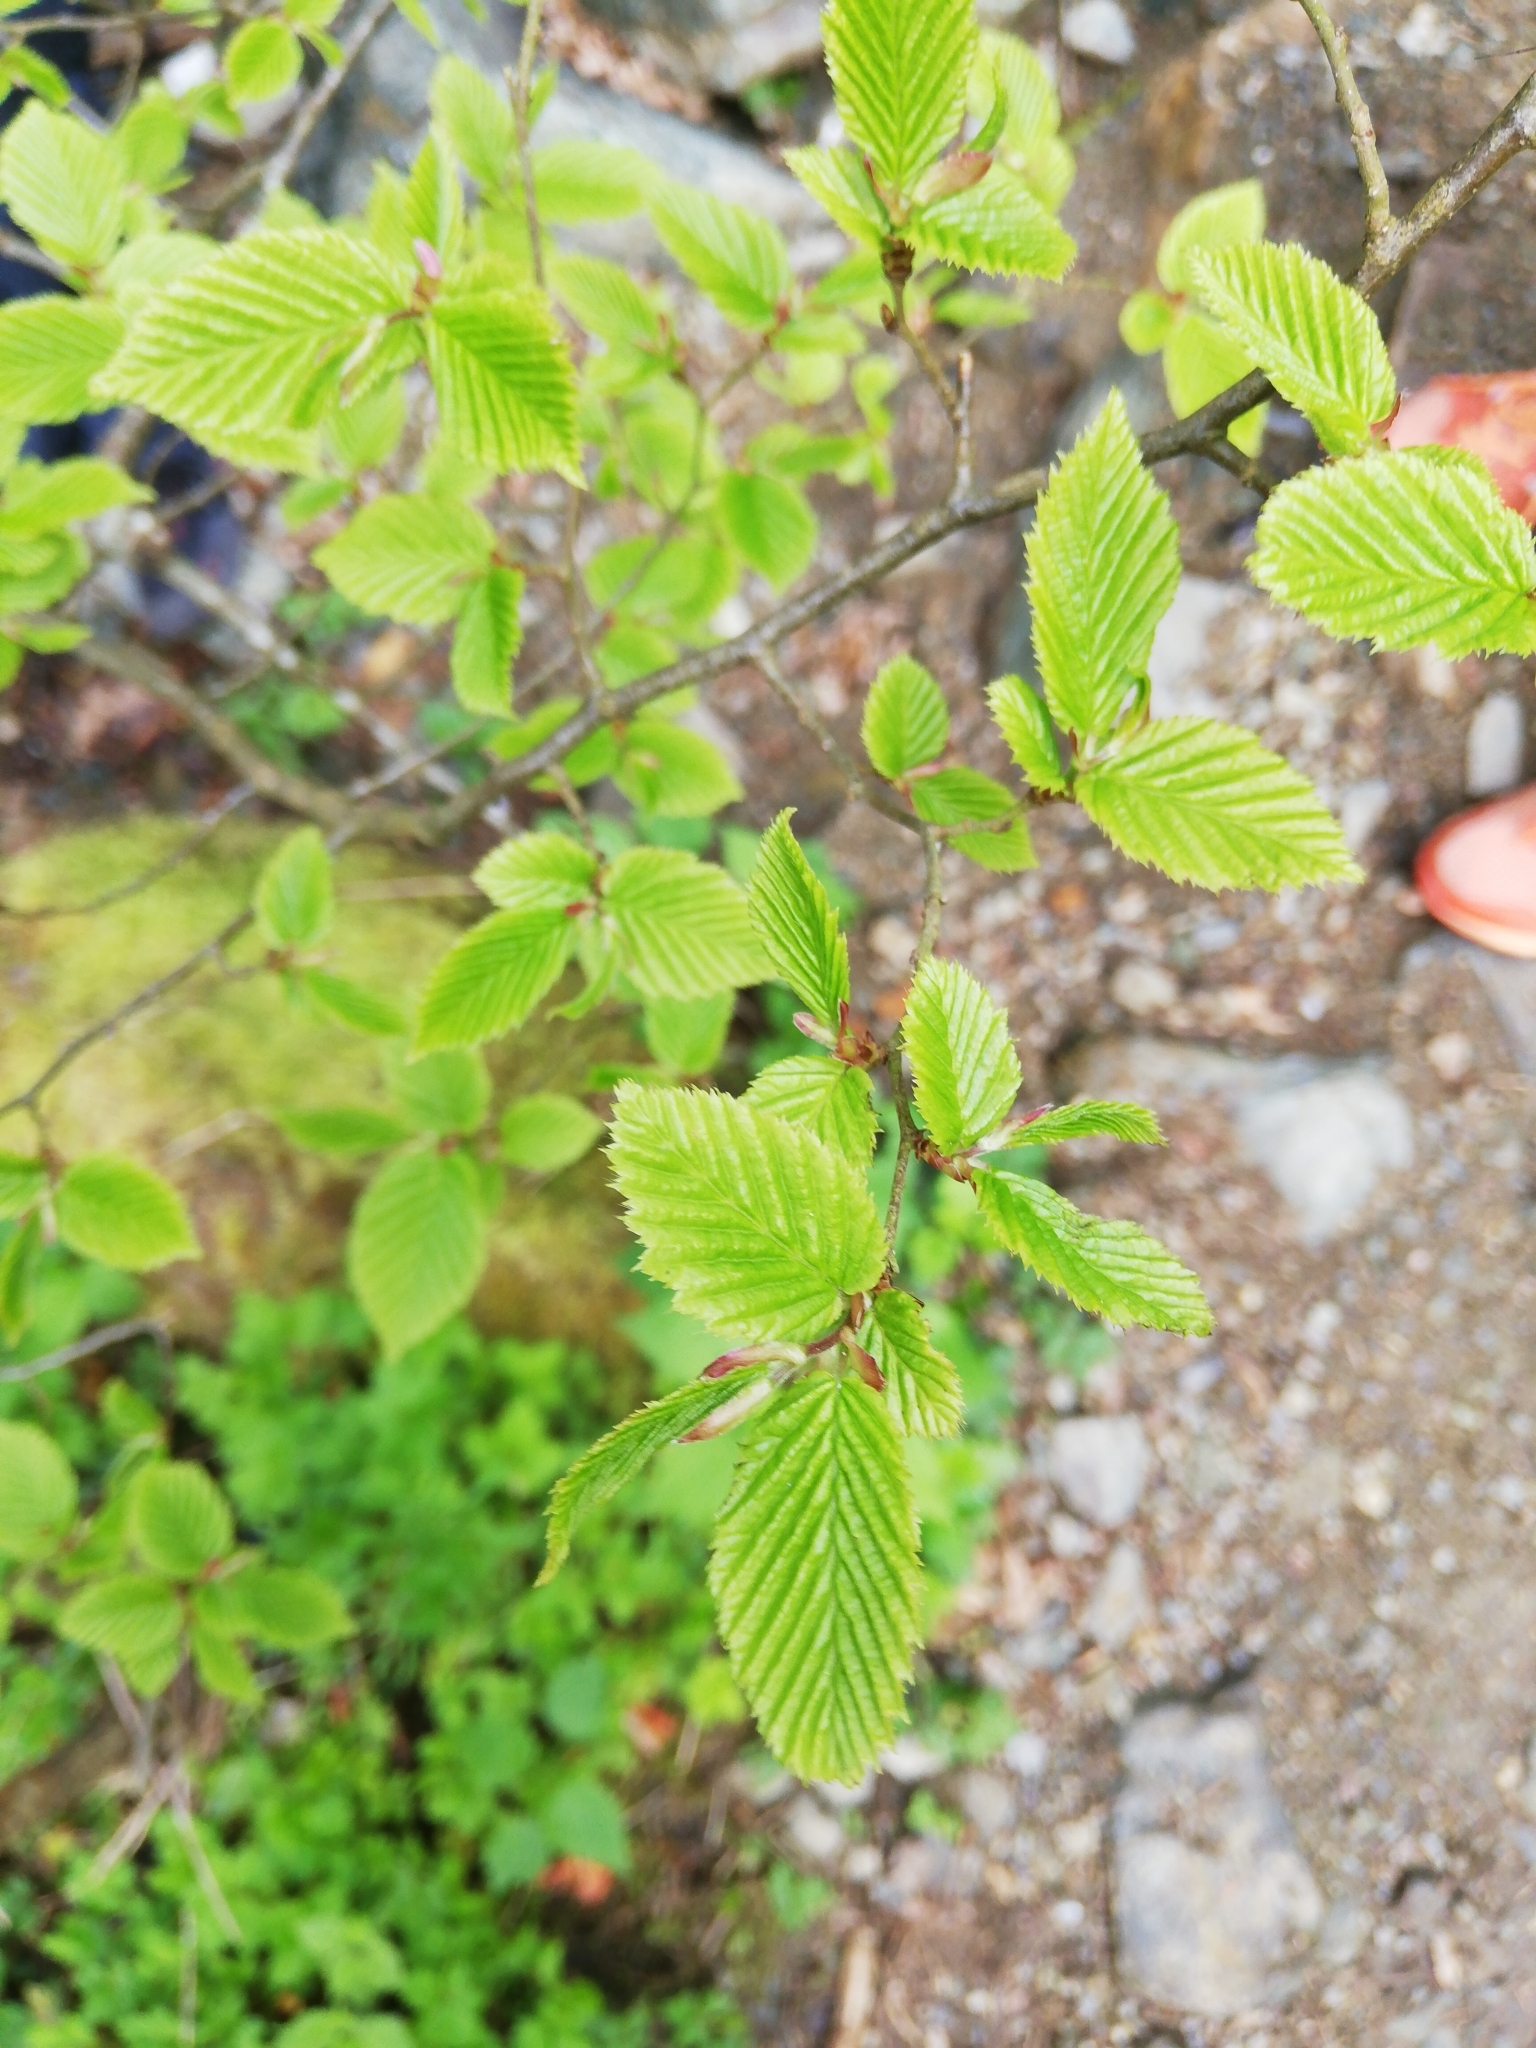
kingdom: Plantae
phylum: Tracheophyta
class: Magnoliopsida
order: Fagales
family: Betulaceae
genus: Carpinus
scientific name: Carpinus betulus
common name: Hornbeam
